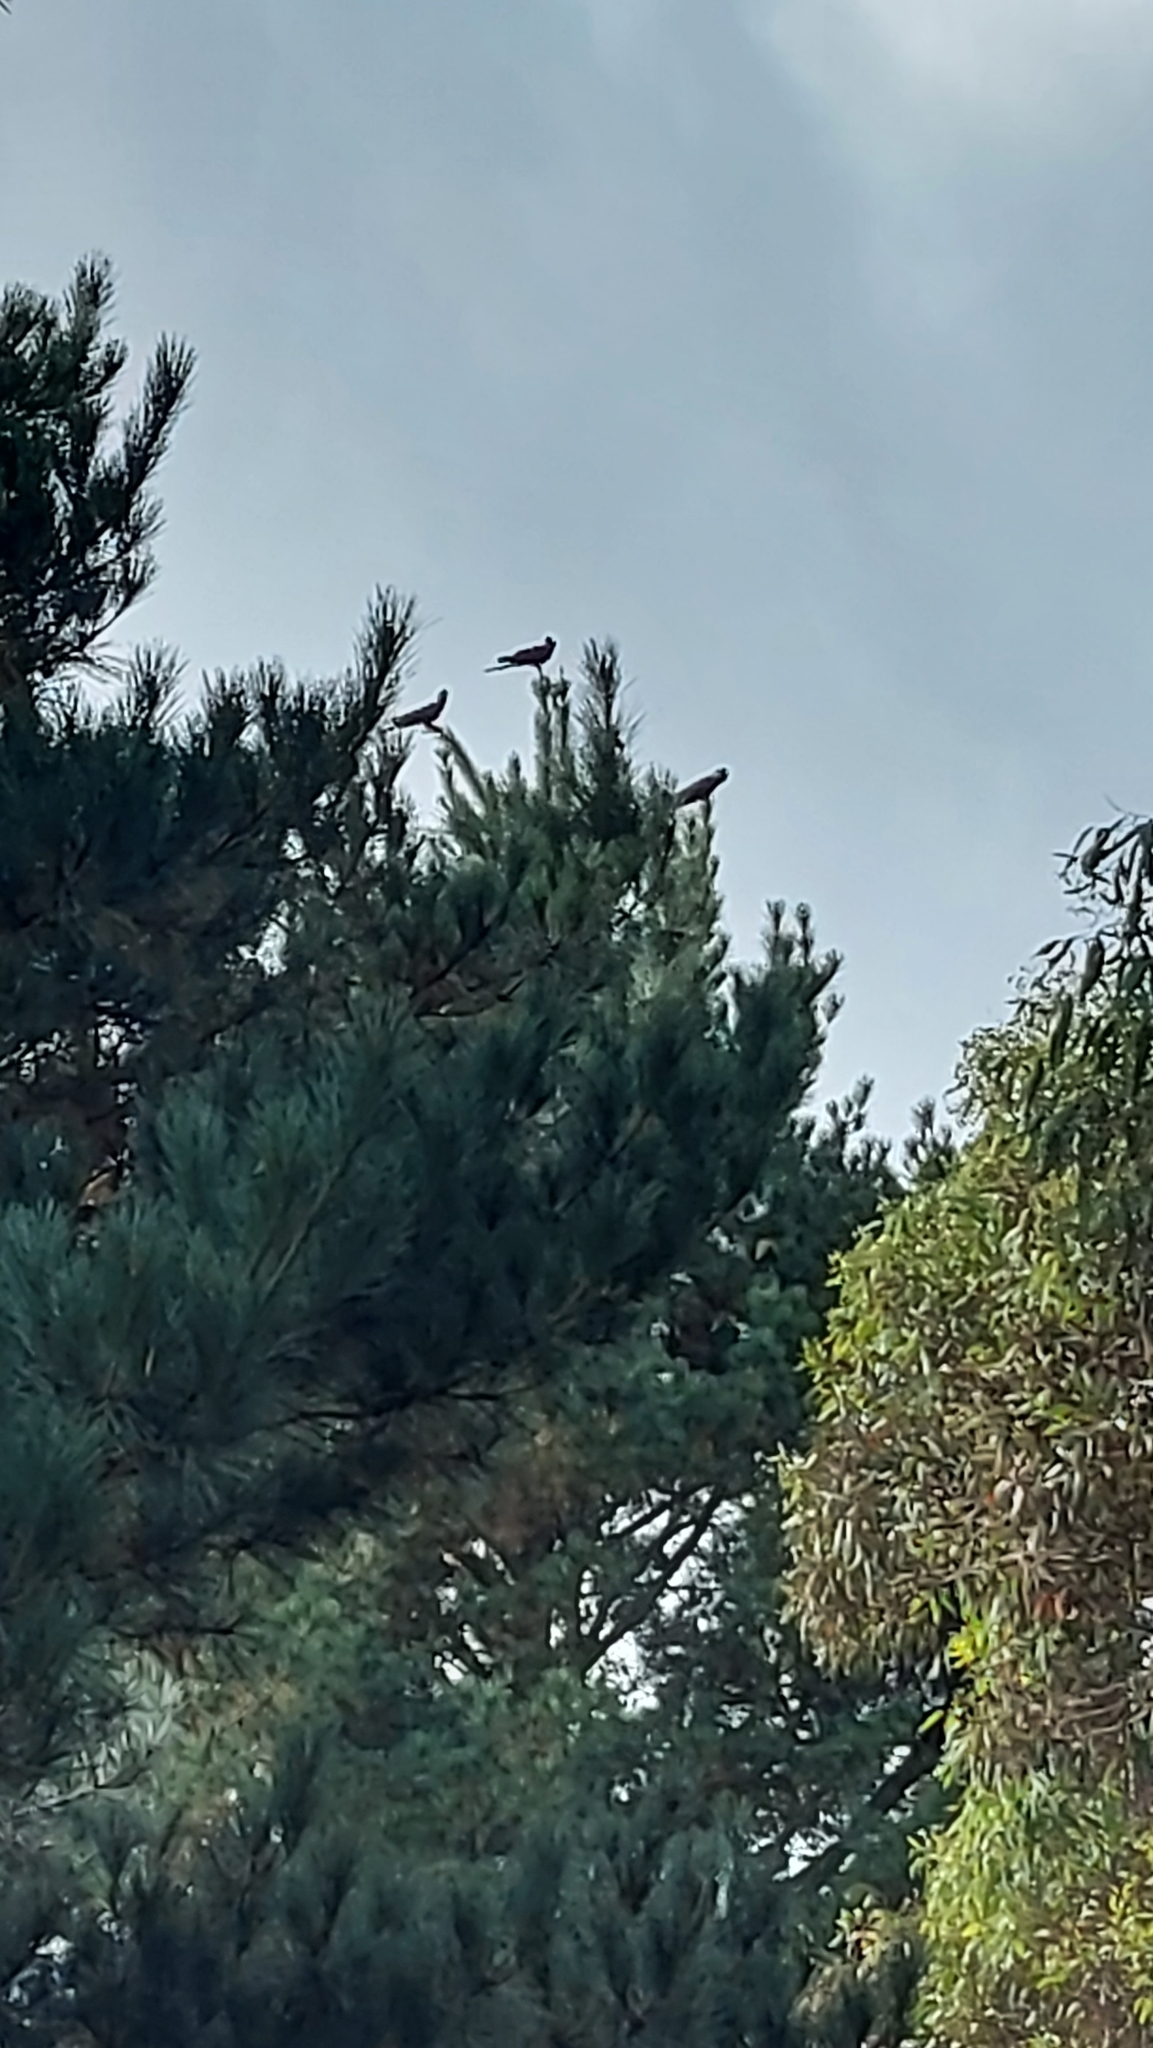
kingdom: Animalia
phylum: Chordata
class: Aves
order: Psittaciformes
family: Cacatuidae
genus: Zanda
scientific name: Zanda funerea
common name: Yellow-tailed black-cockatoo
